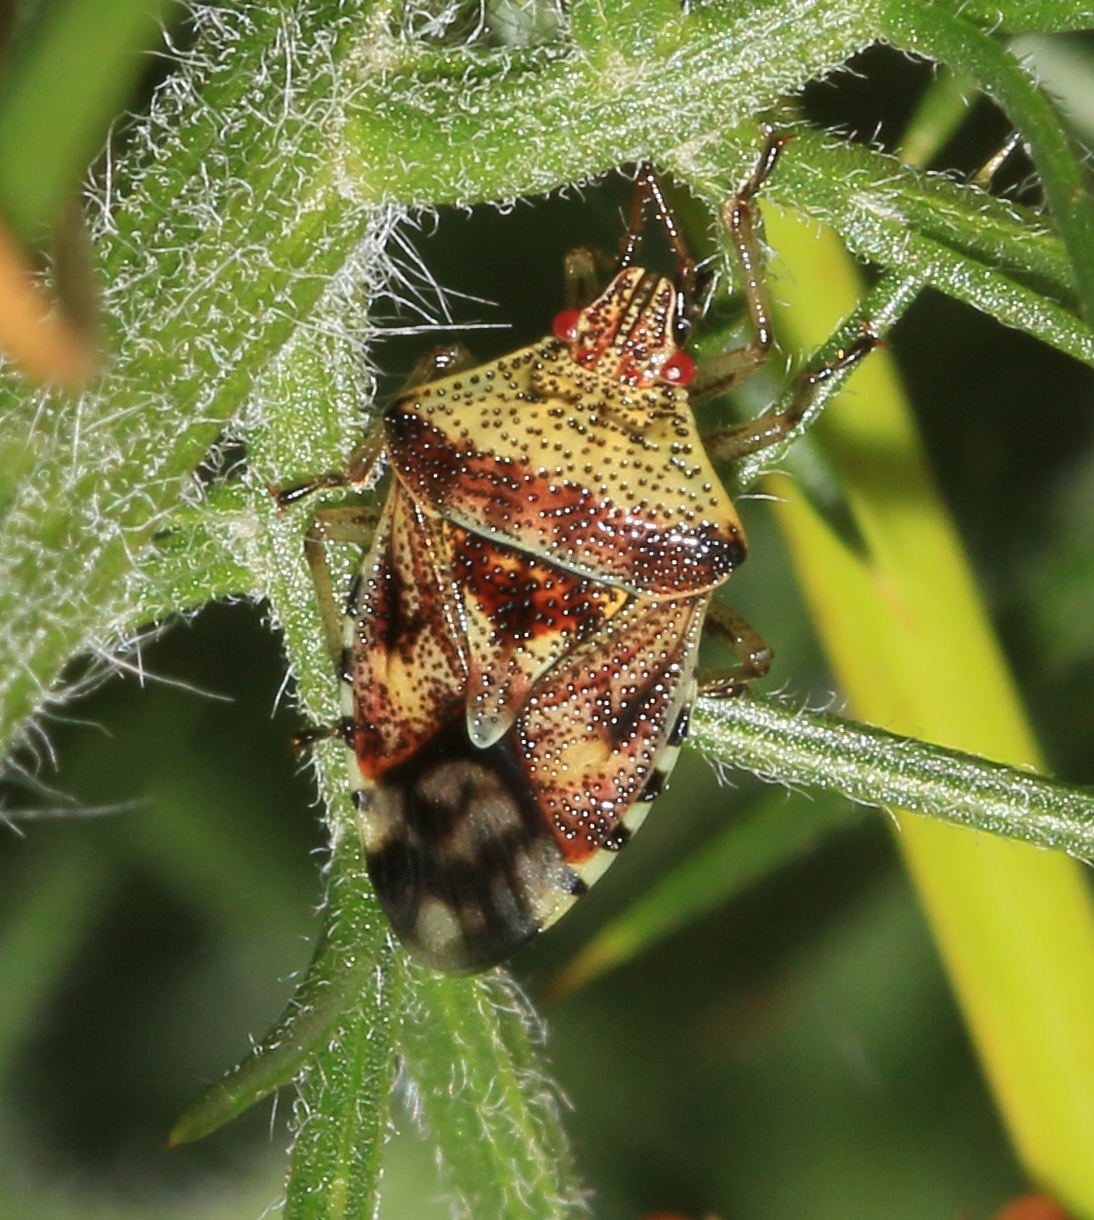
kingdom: Animalia
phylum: Arthropoda
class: Insecta
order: Hemiptera
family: Acanthosomatidae
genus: Elasmucha
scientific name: Elasmucha grisea
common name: Parent bug
